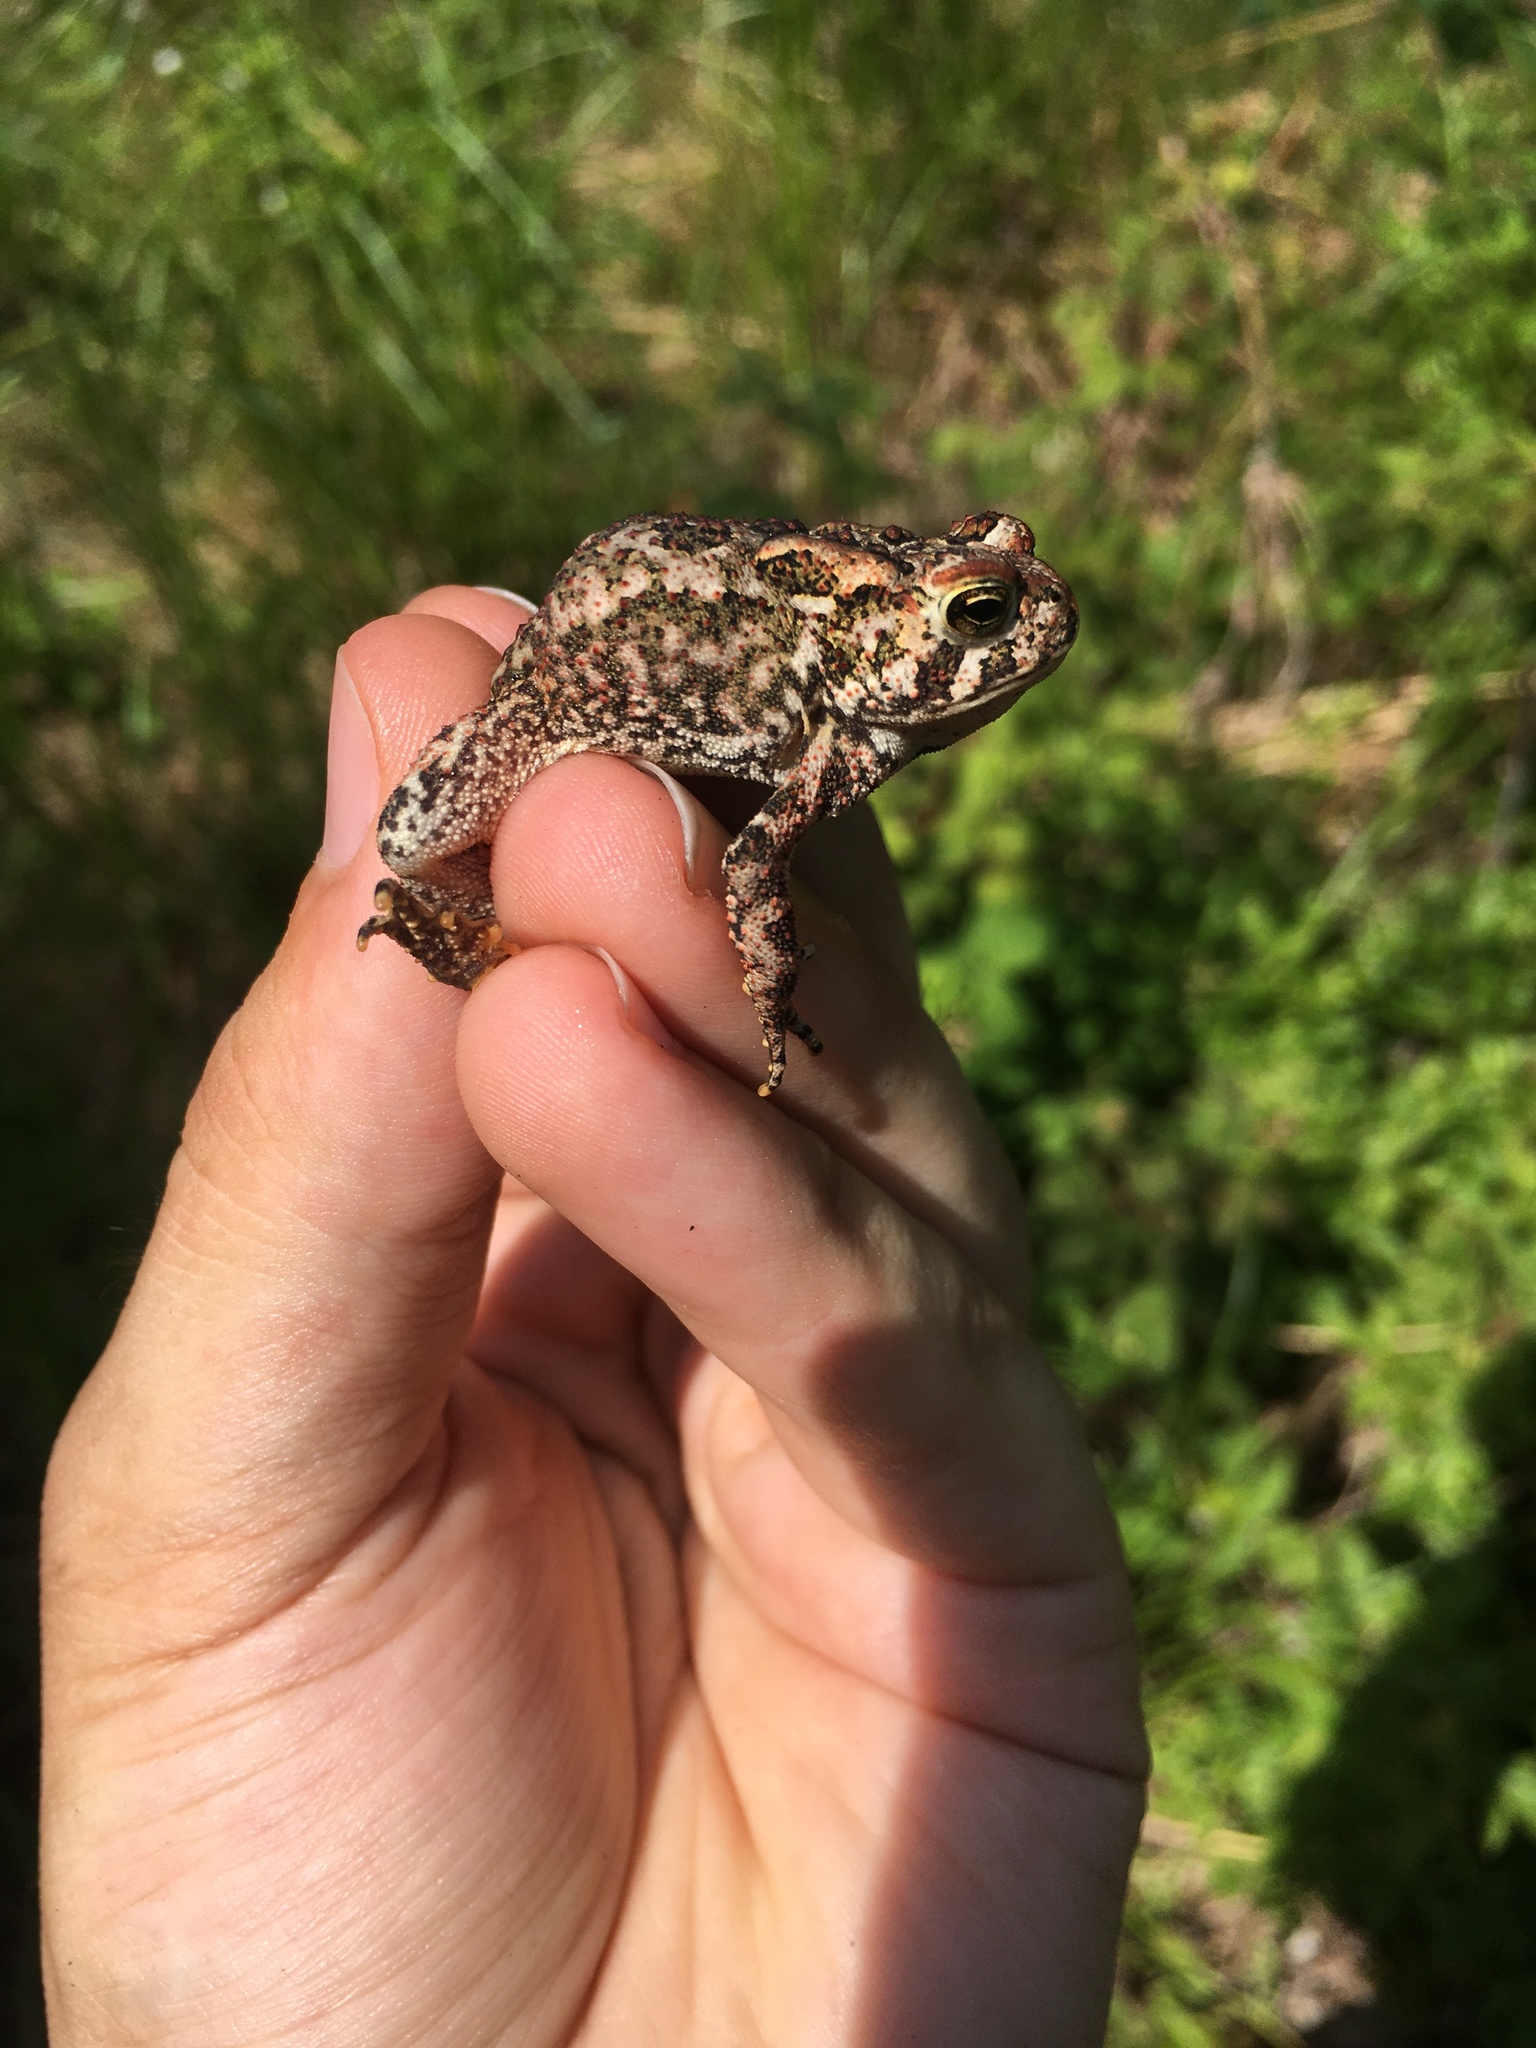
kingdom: Animalia
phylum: Chordata
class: Amphibia
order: Anura
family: Bufonidae
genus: Anaxyrus
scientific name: Anaxyrus americanus
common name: American toad
